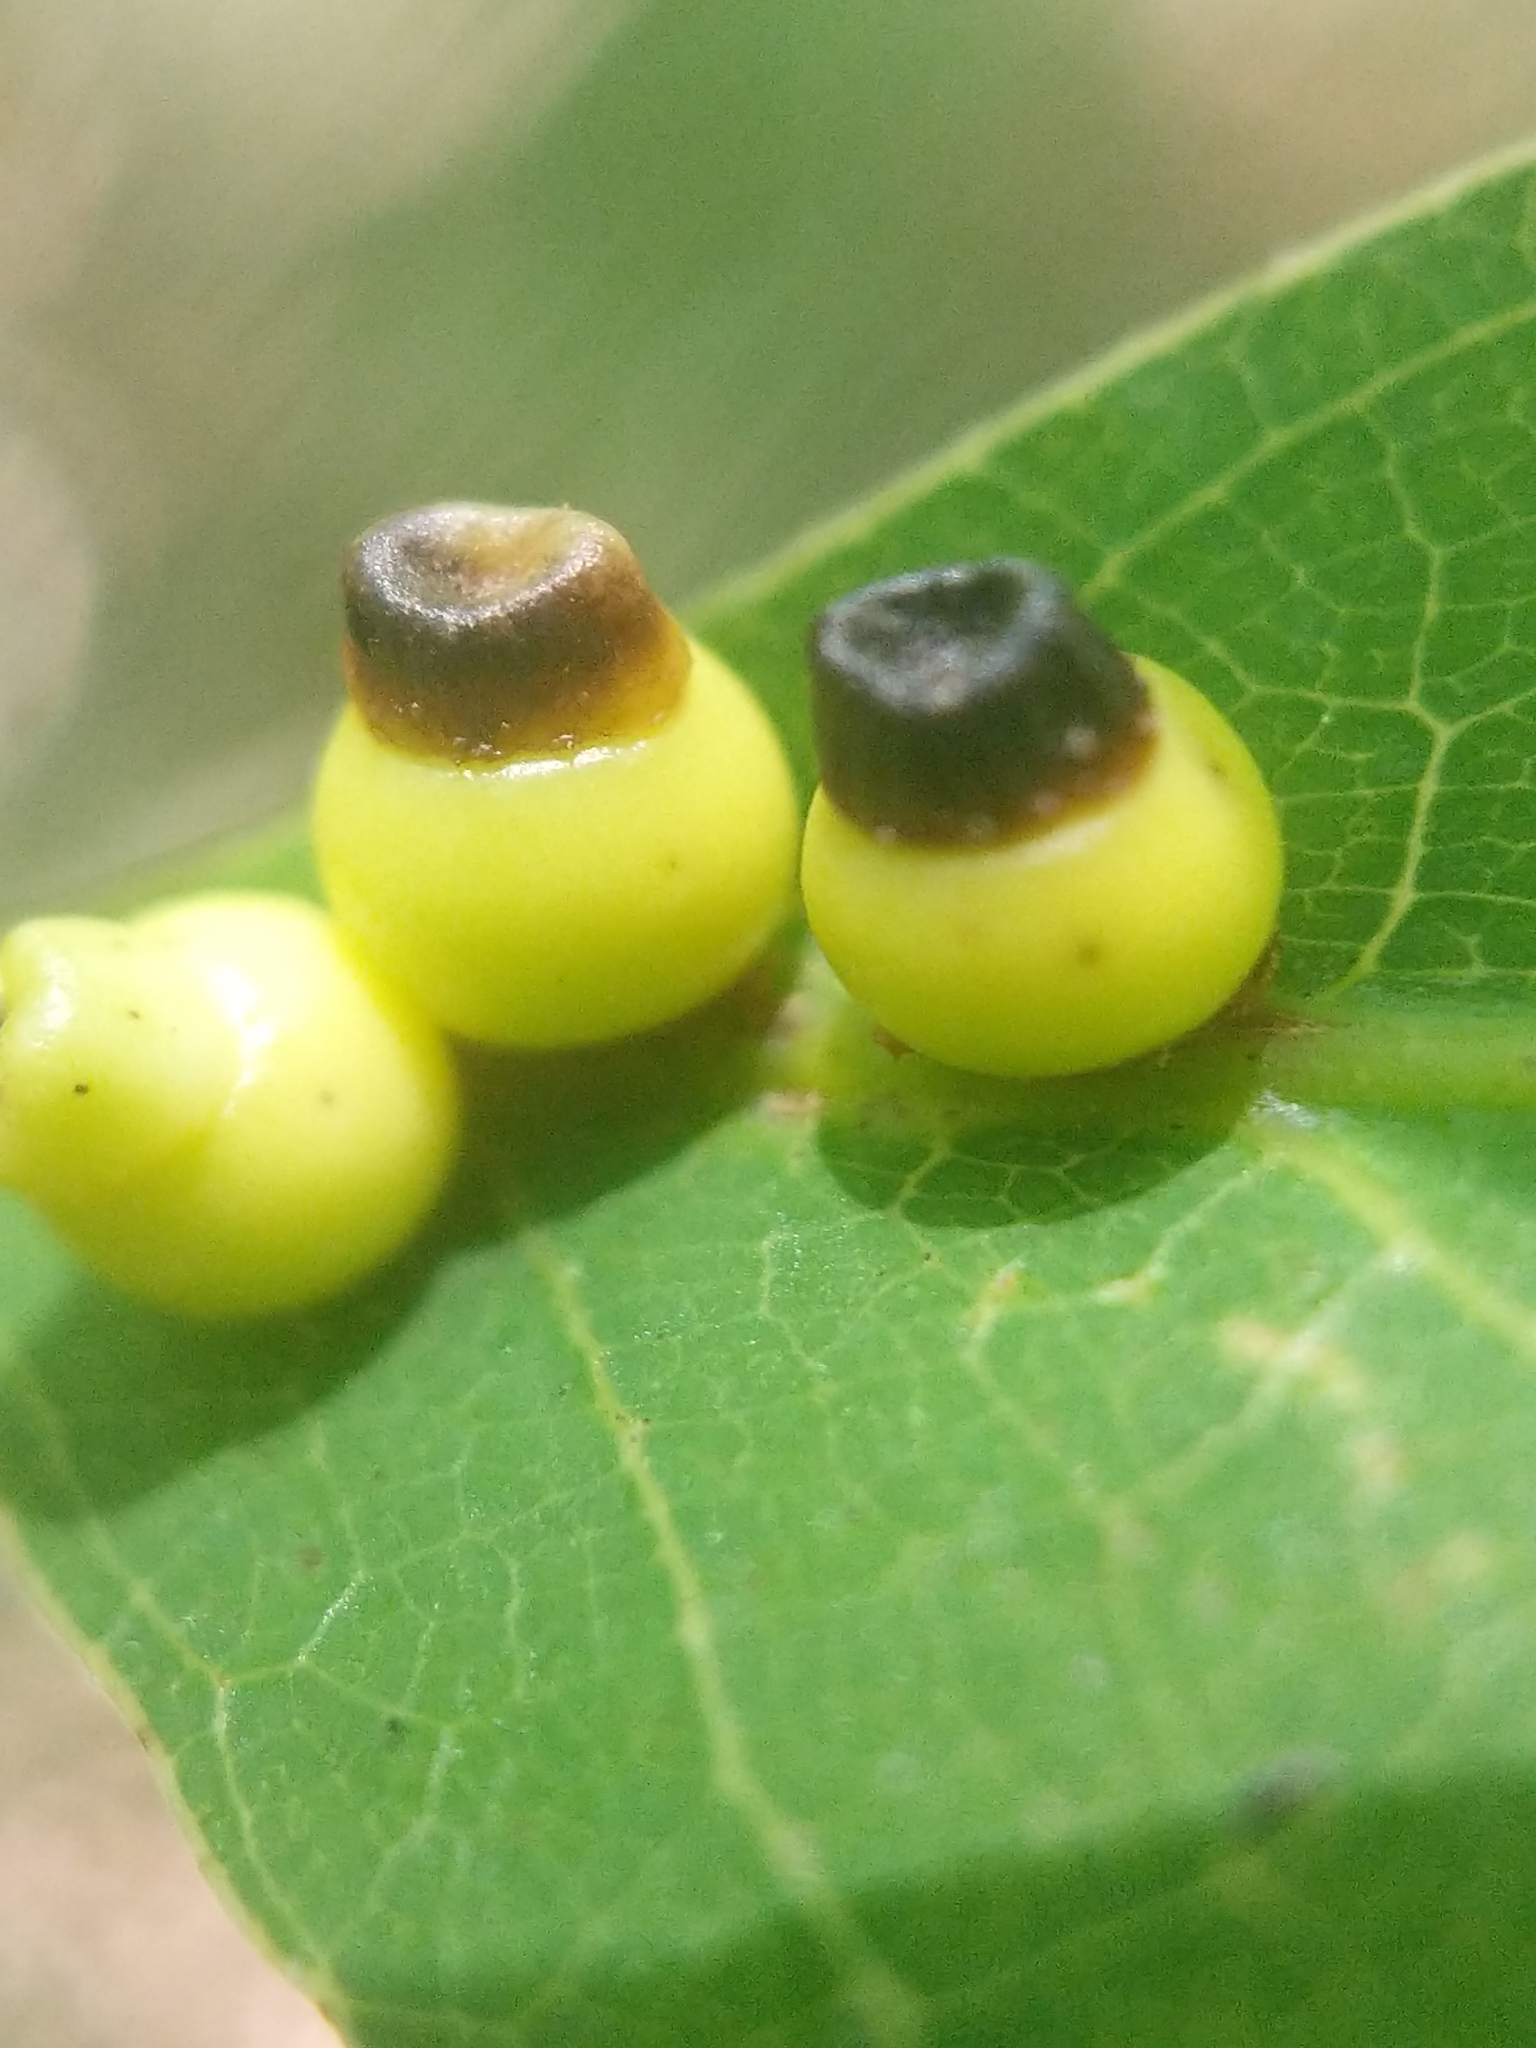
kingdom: Animalia
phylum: Arthropoda
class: Insecta
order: Hymenoptera
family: Cynipidae
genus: Kokkocynips
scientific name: Kokkocynips rileyi
